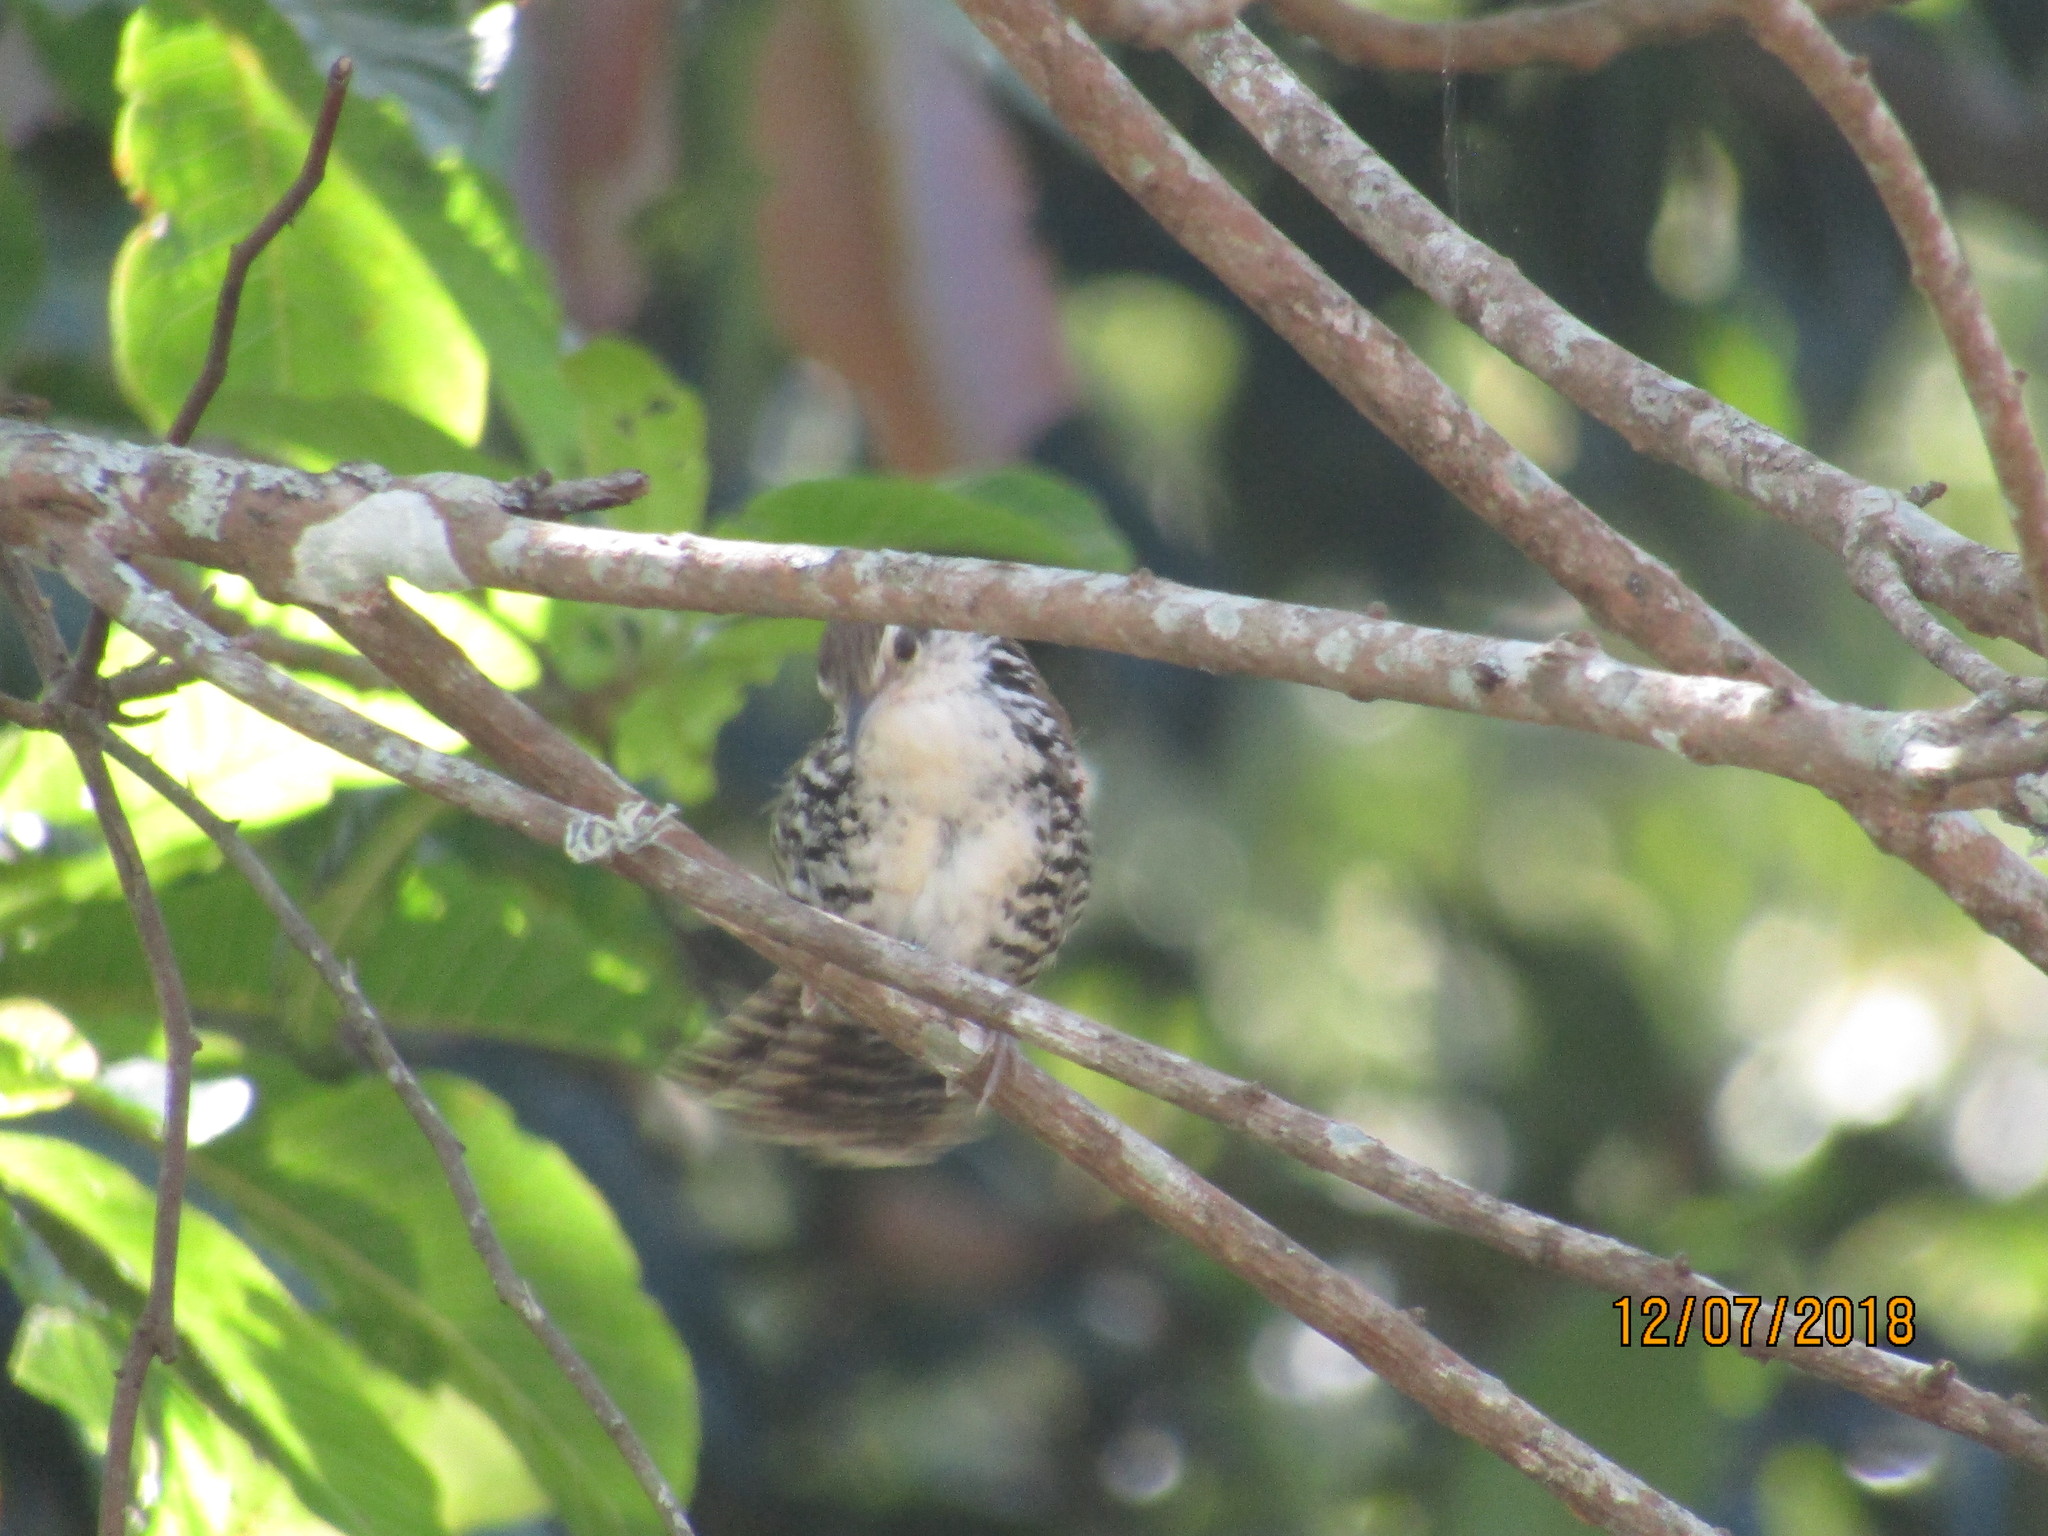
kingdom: Animalia
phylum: Chordata
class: Aves
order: Passeriformes
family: Troglodytidae
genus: Thryophilus
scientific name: Thryophilus pleurostictus
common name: Banded wren
